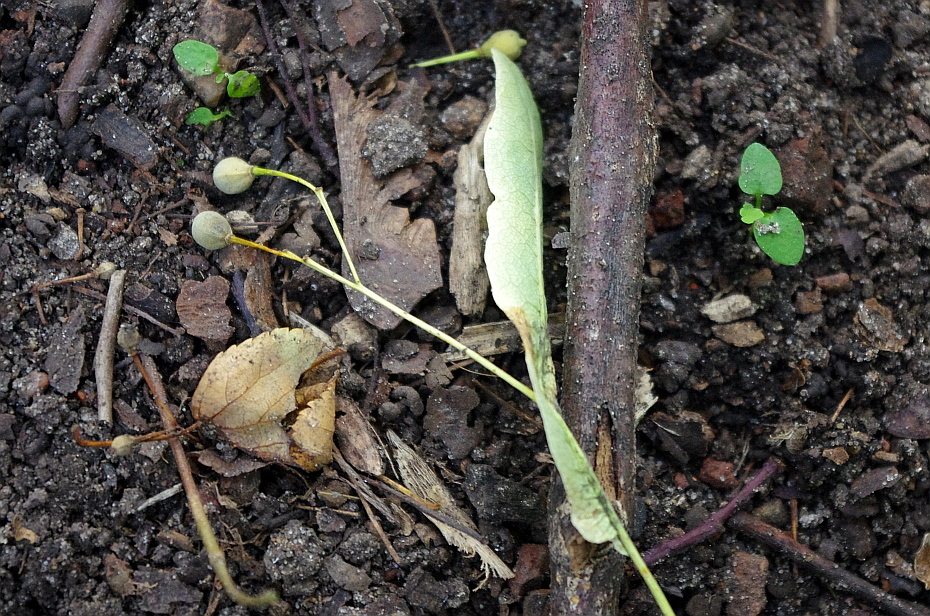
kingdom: Plantae
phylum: Tracheophyta
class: Magnoliopsida
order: Malvales
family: Malvaceae
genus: Tilia
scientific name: Tilia platyphyllos
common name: Large-leaved lime
